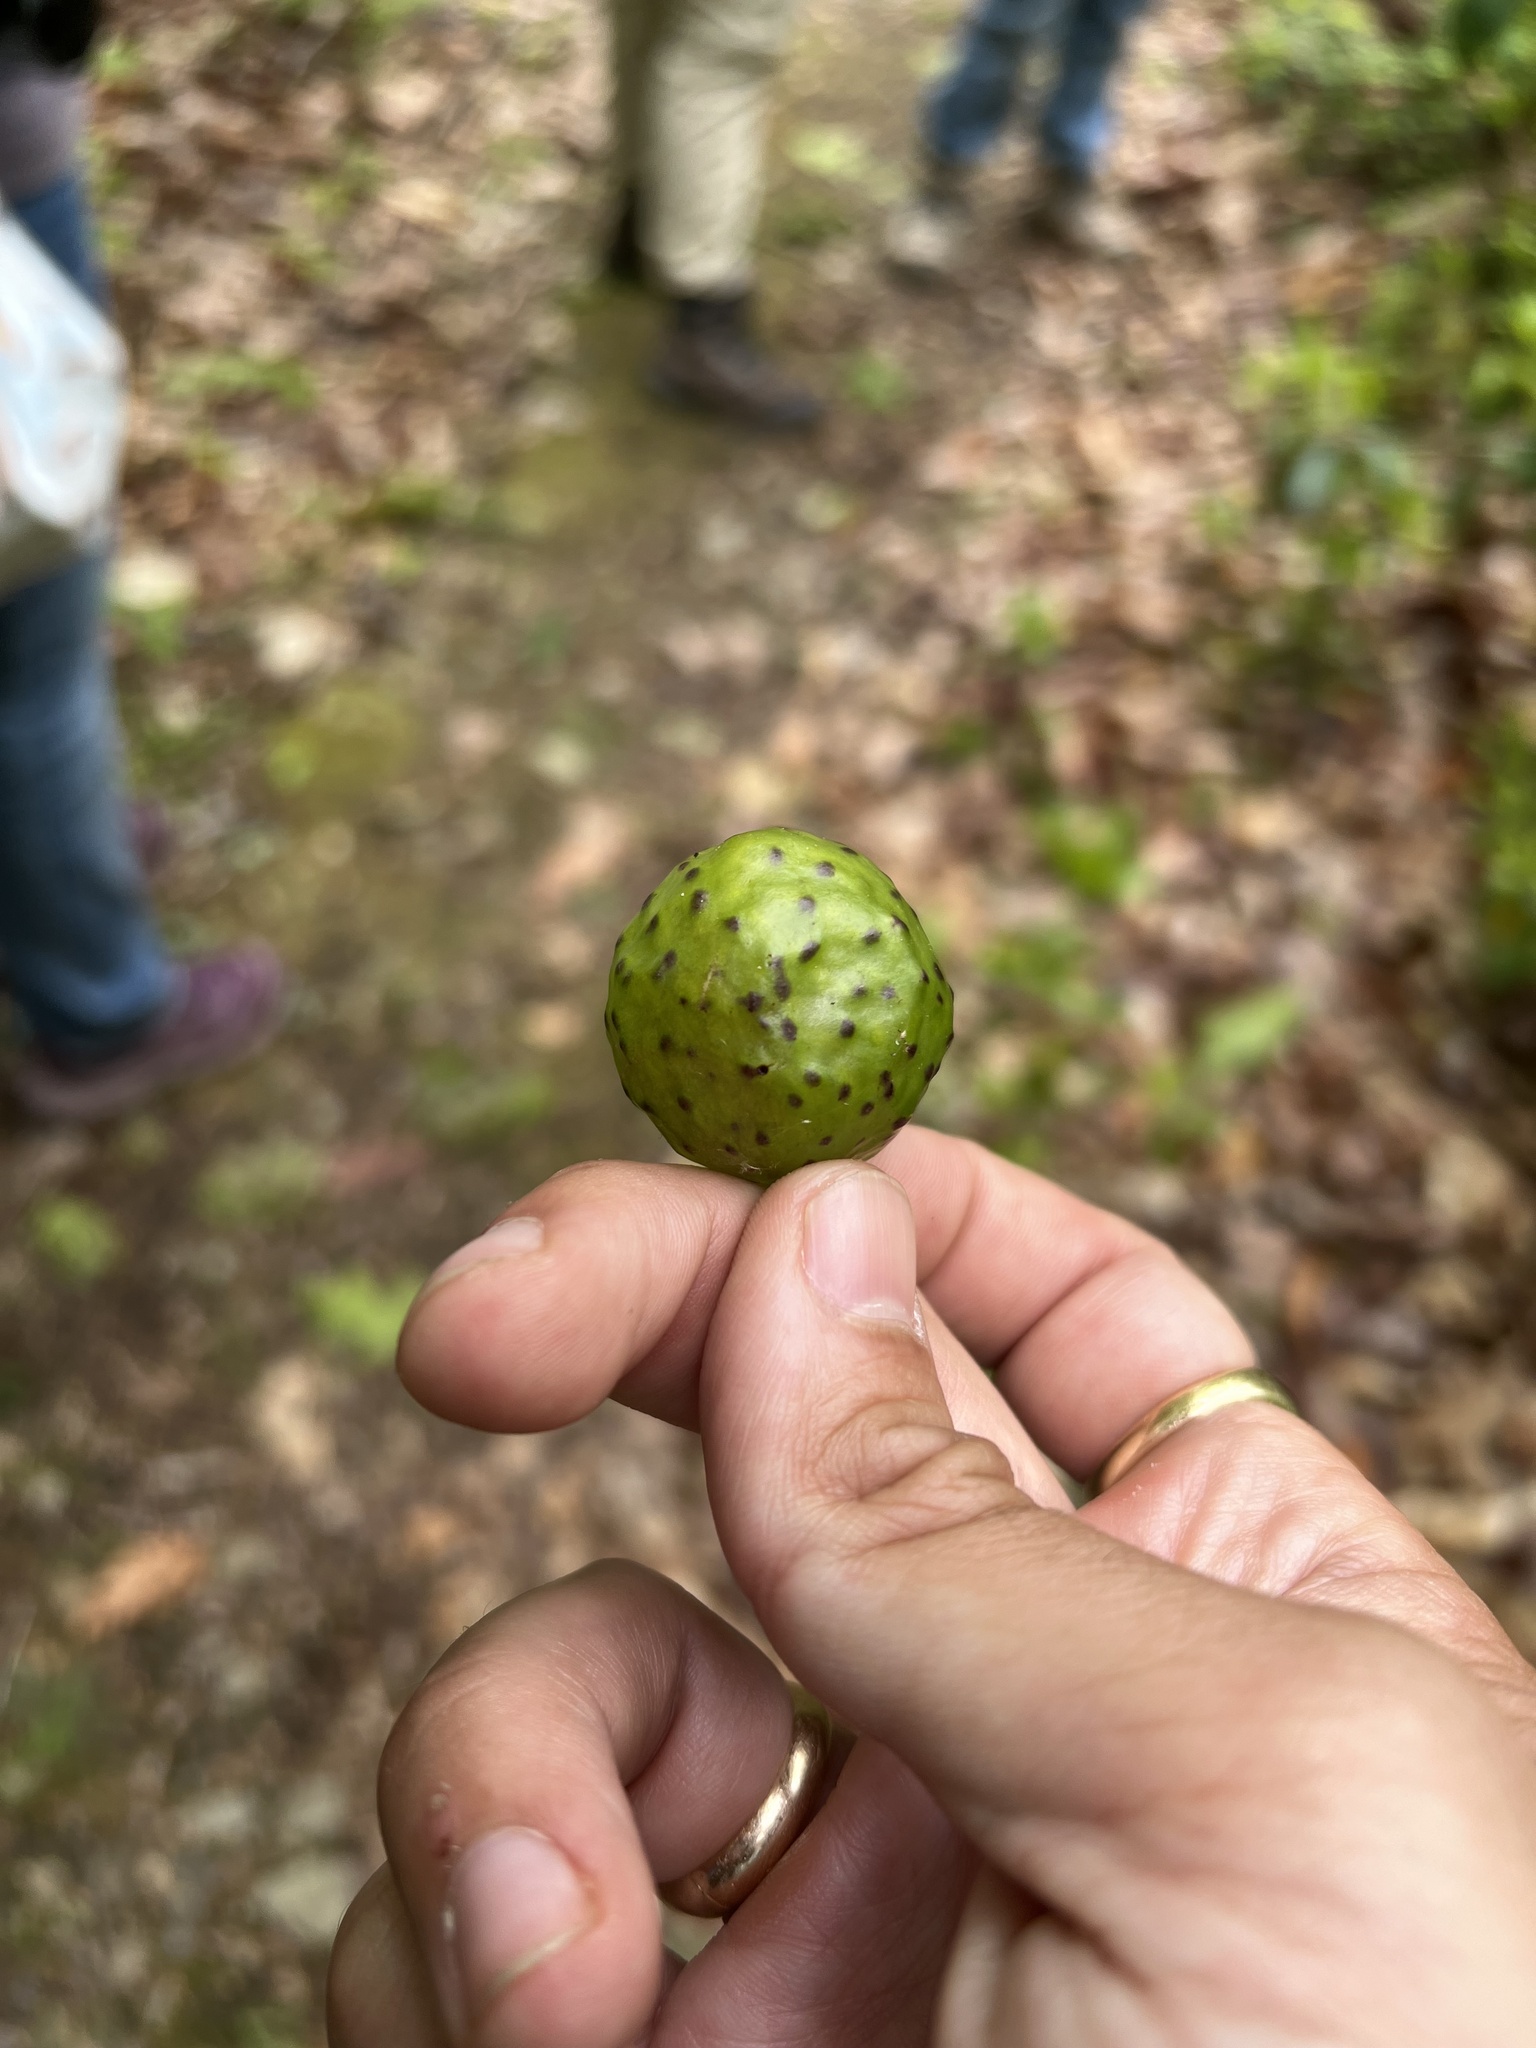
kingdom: Animalia
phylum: Arthropoda
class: Insecta
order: Hymenoptera
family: Cynipidae
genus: Amphibolips
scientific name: Amphibolips
